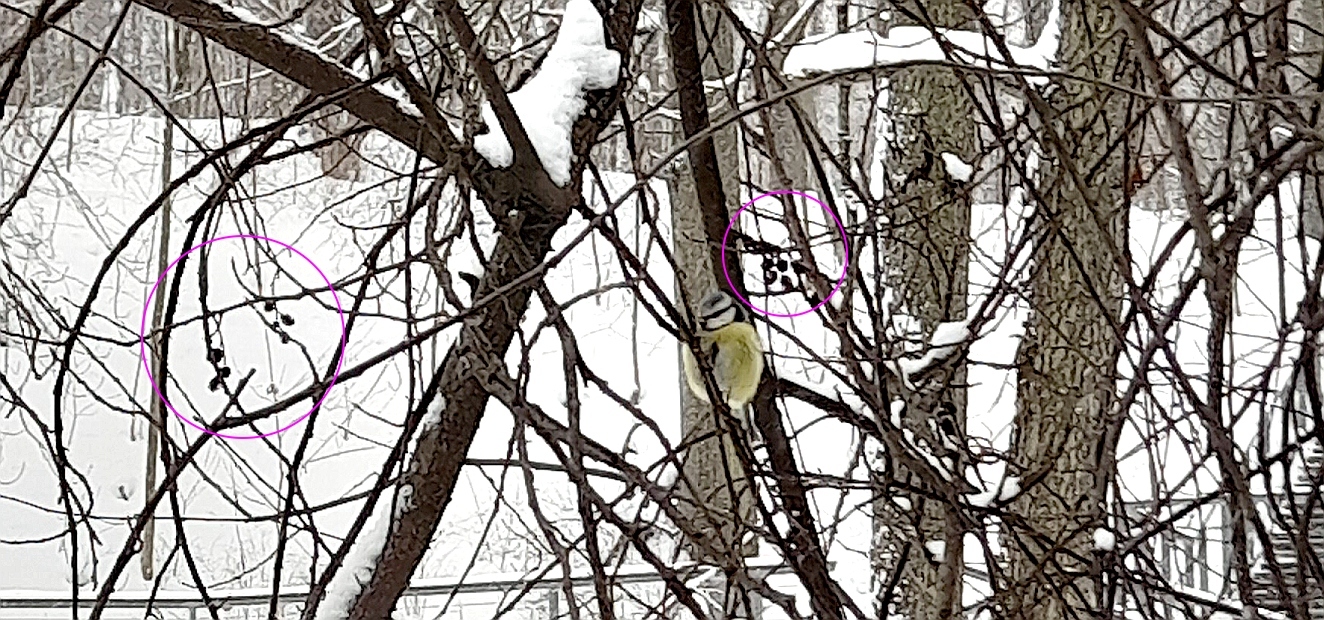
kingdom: Plantae
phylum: Tracheophyta
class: Magnoliopsida
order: Fagales
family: Betulaceae
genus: Alnus
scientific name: Alnus incana
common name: Grey alder
